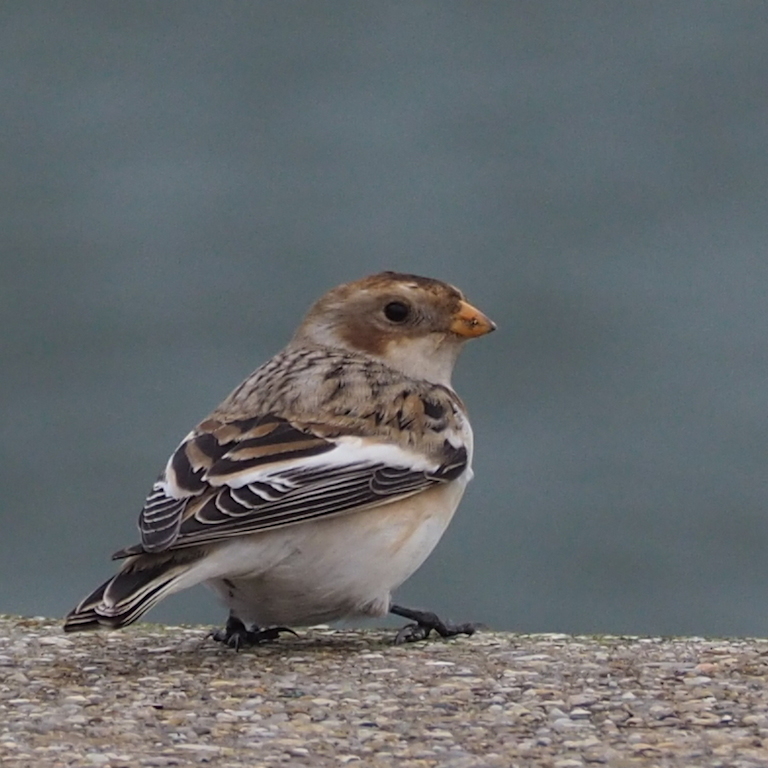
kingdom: Animalia
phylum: Chordata
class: Aves
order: Passeriformes
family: Calcariidae
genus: Plectrophenax
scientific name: Plectrophenax nivalis
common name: Snow bunting
